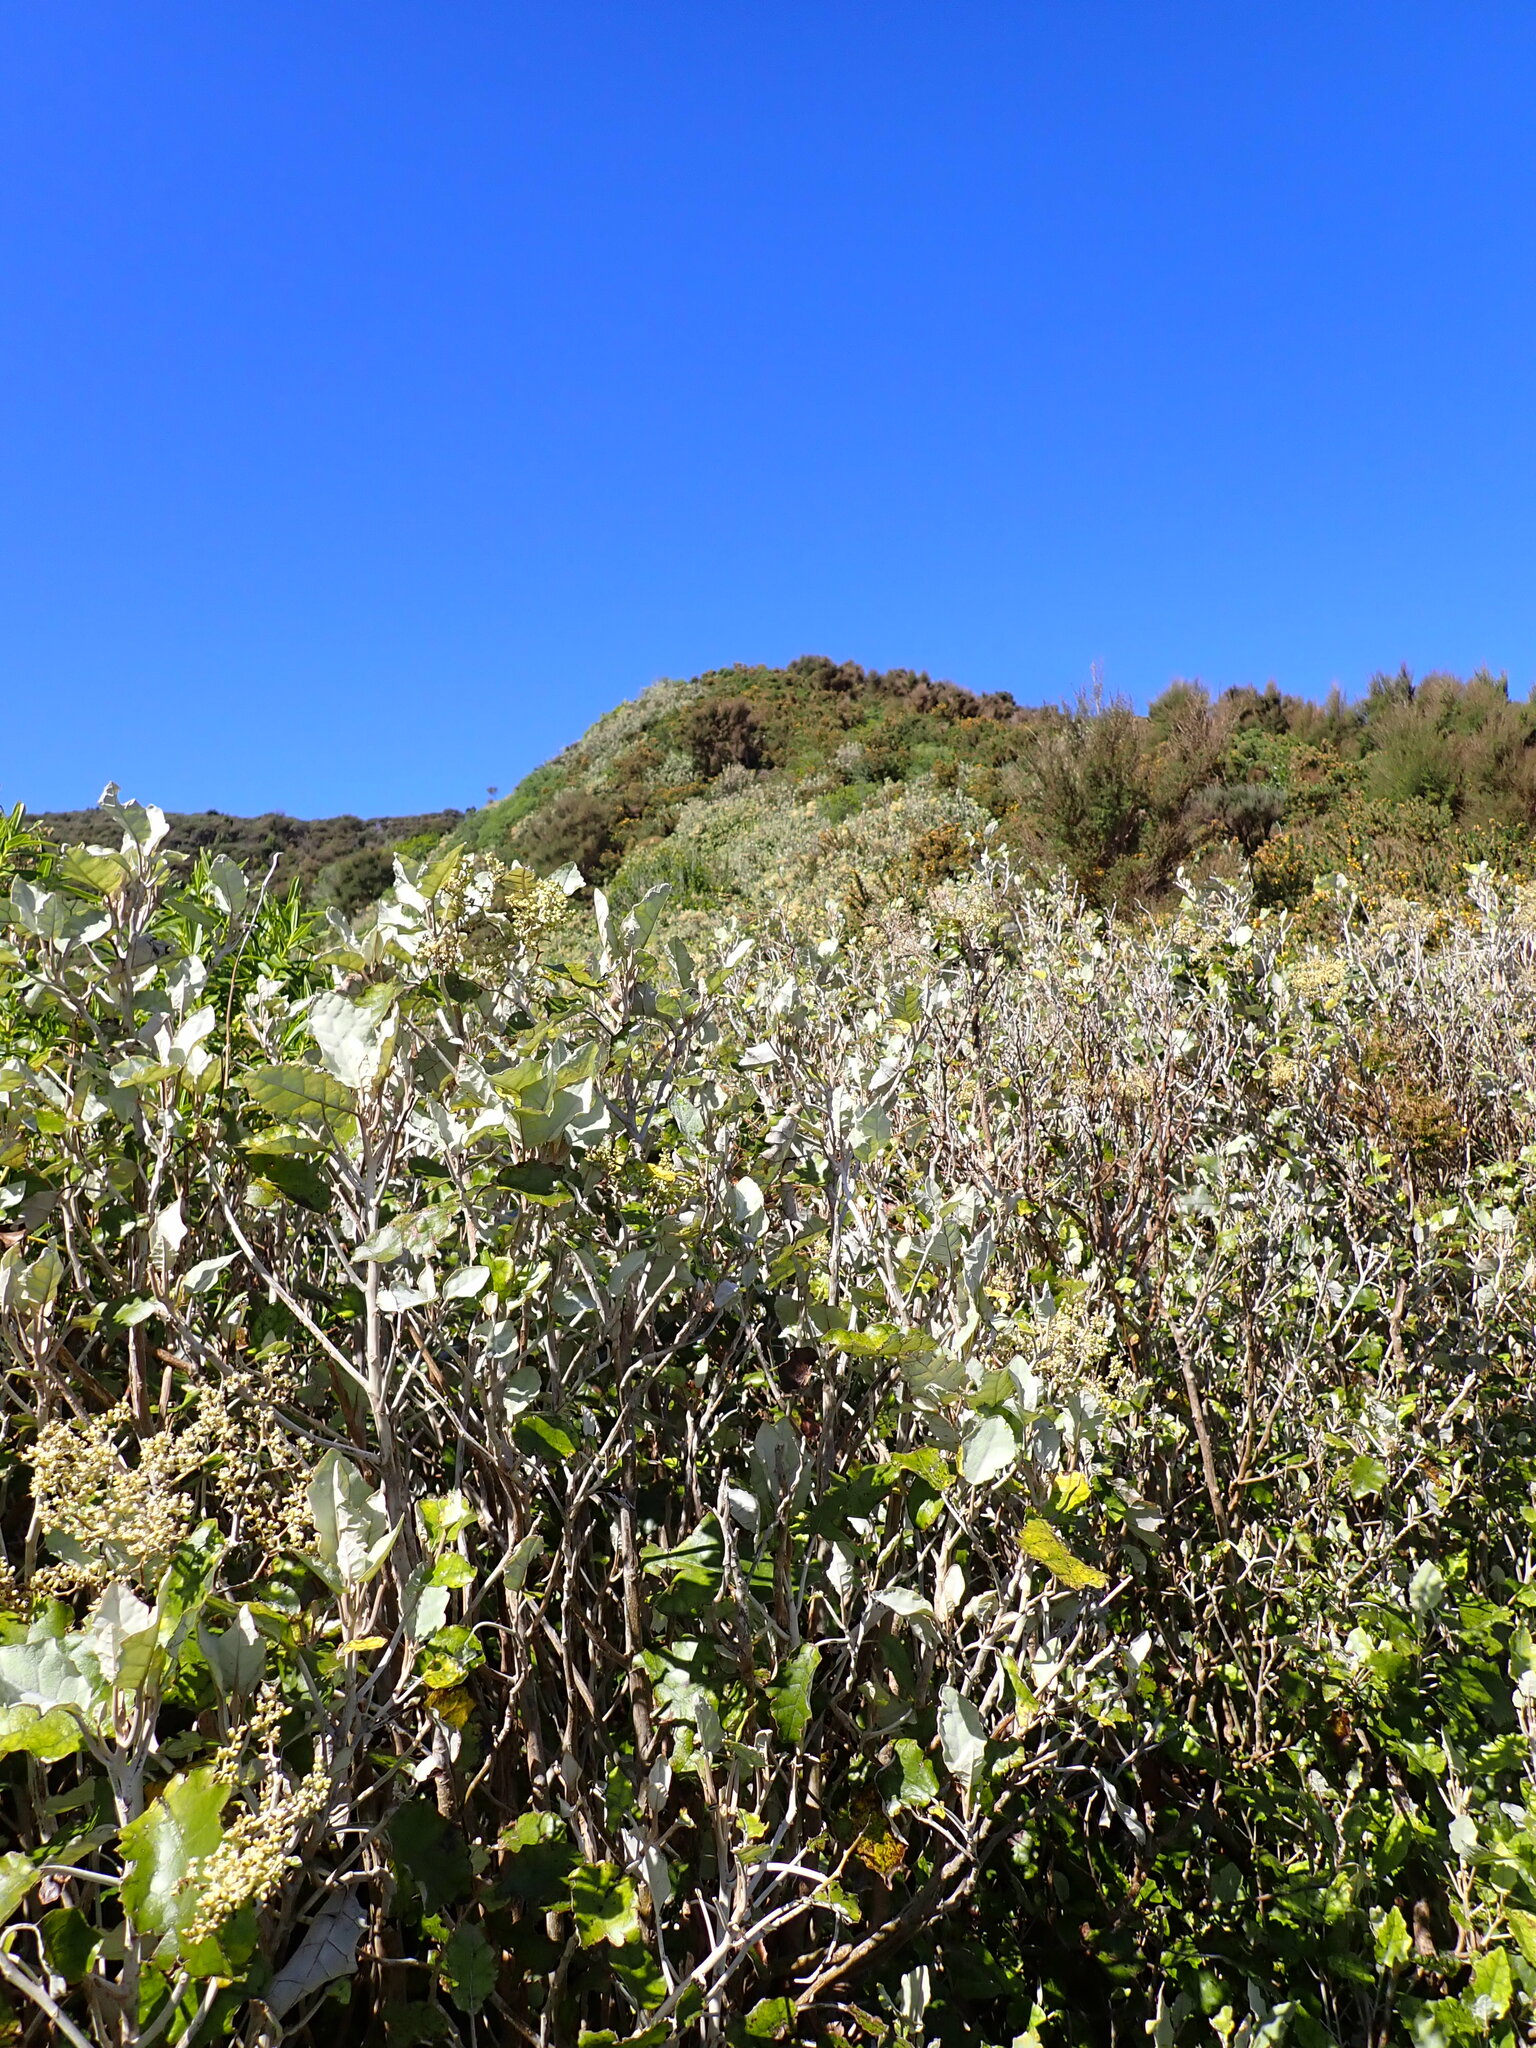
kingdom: Plantae
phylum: Tracheophyta
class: Magnoliopsida
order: Asterales
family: Asteraceae
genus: Brachyglottis
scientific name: Brachyglottis repanda
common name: Hedge ragwort
